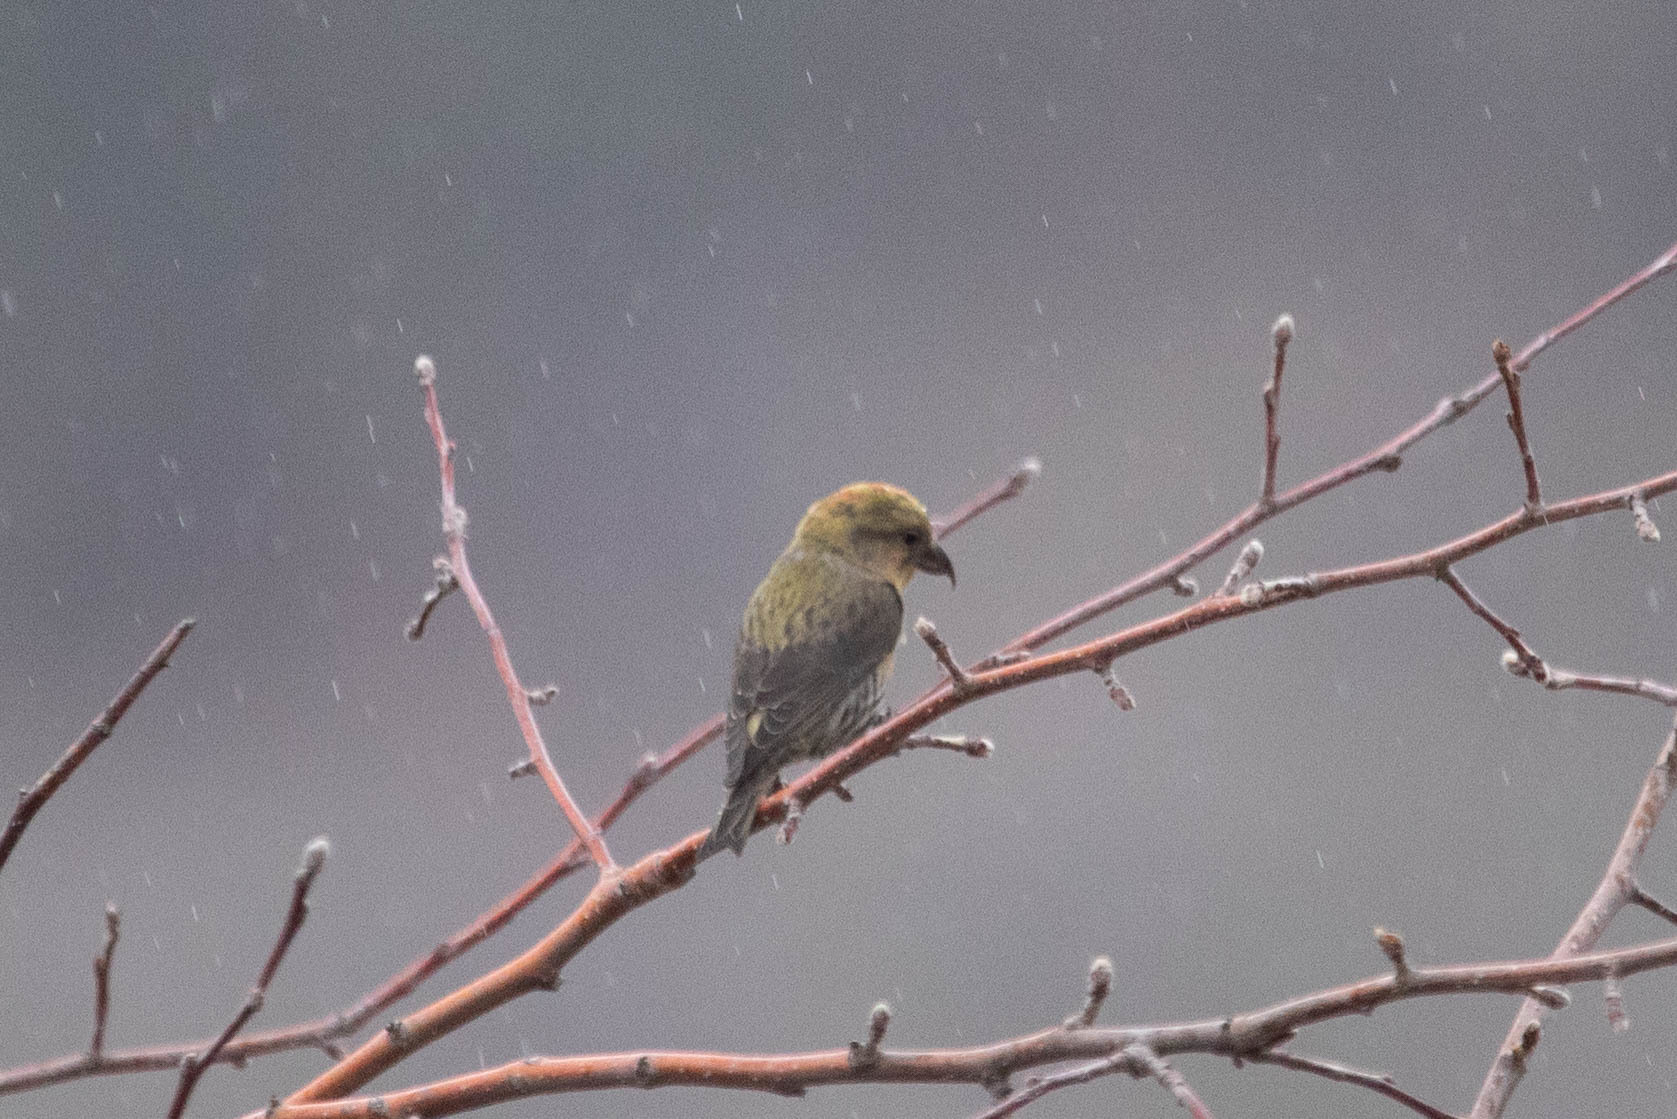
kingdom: Animalia
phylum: Chordata
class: Aves
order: Passeriformes
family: Fringillidae
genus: Loxia
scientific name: Loxia curvirostra
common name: Red crossbill
